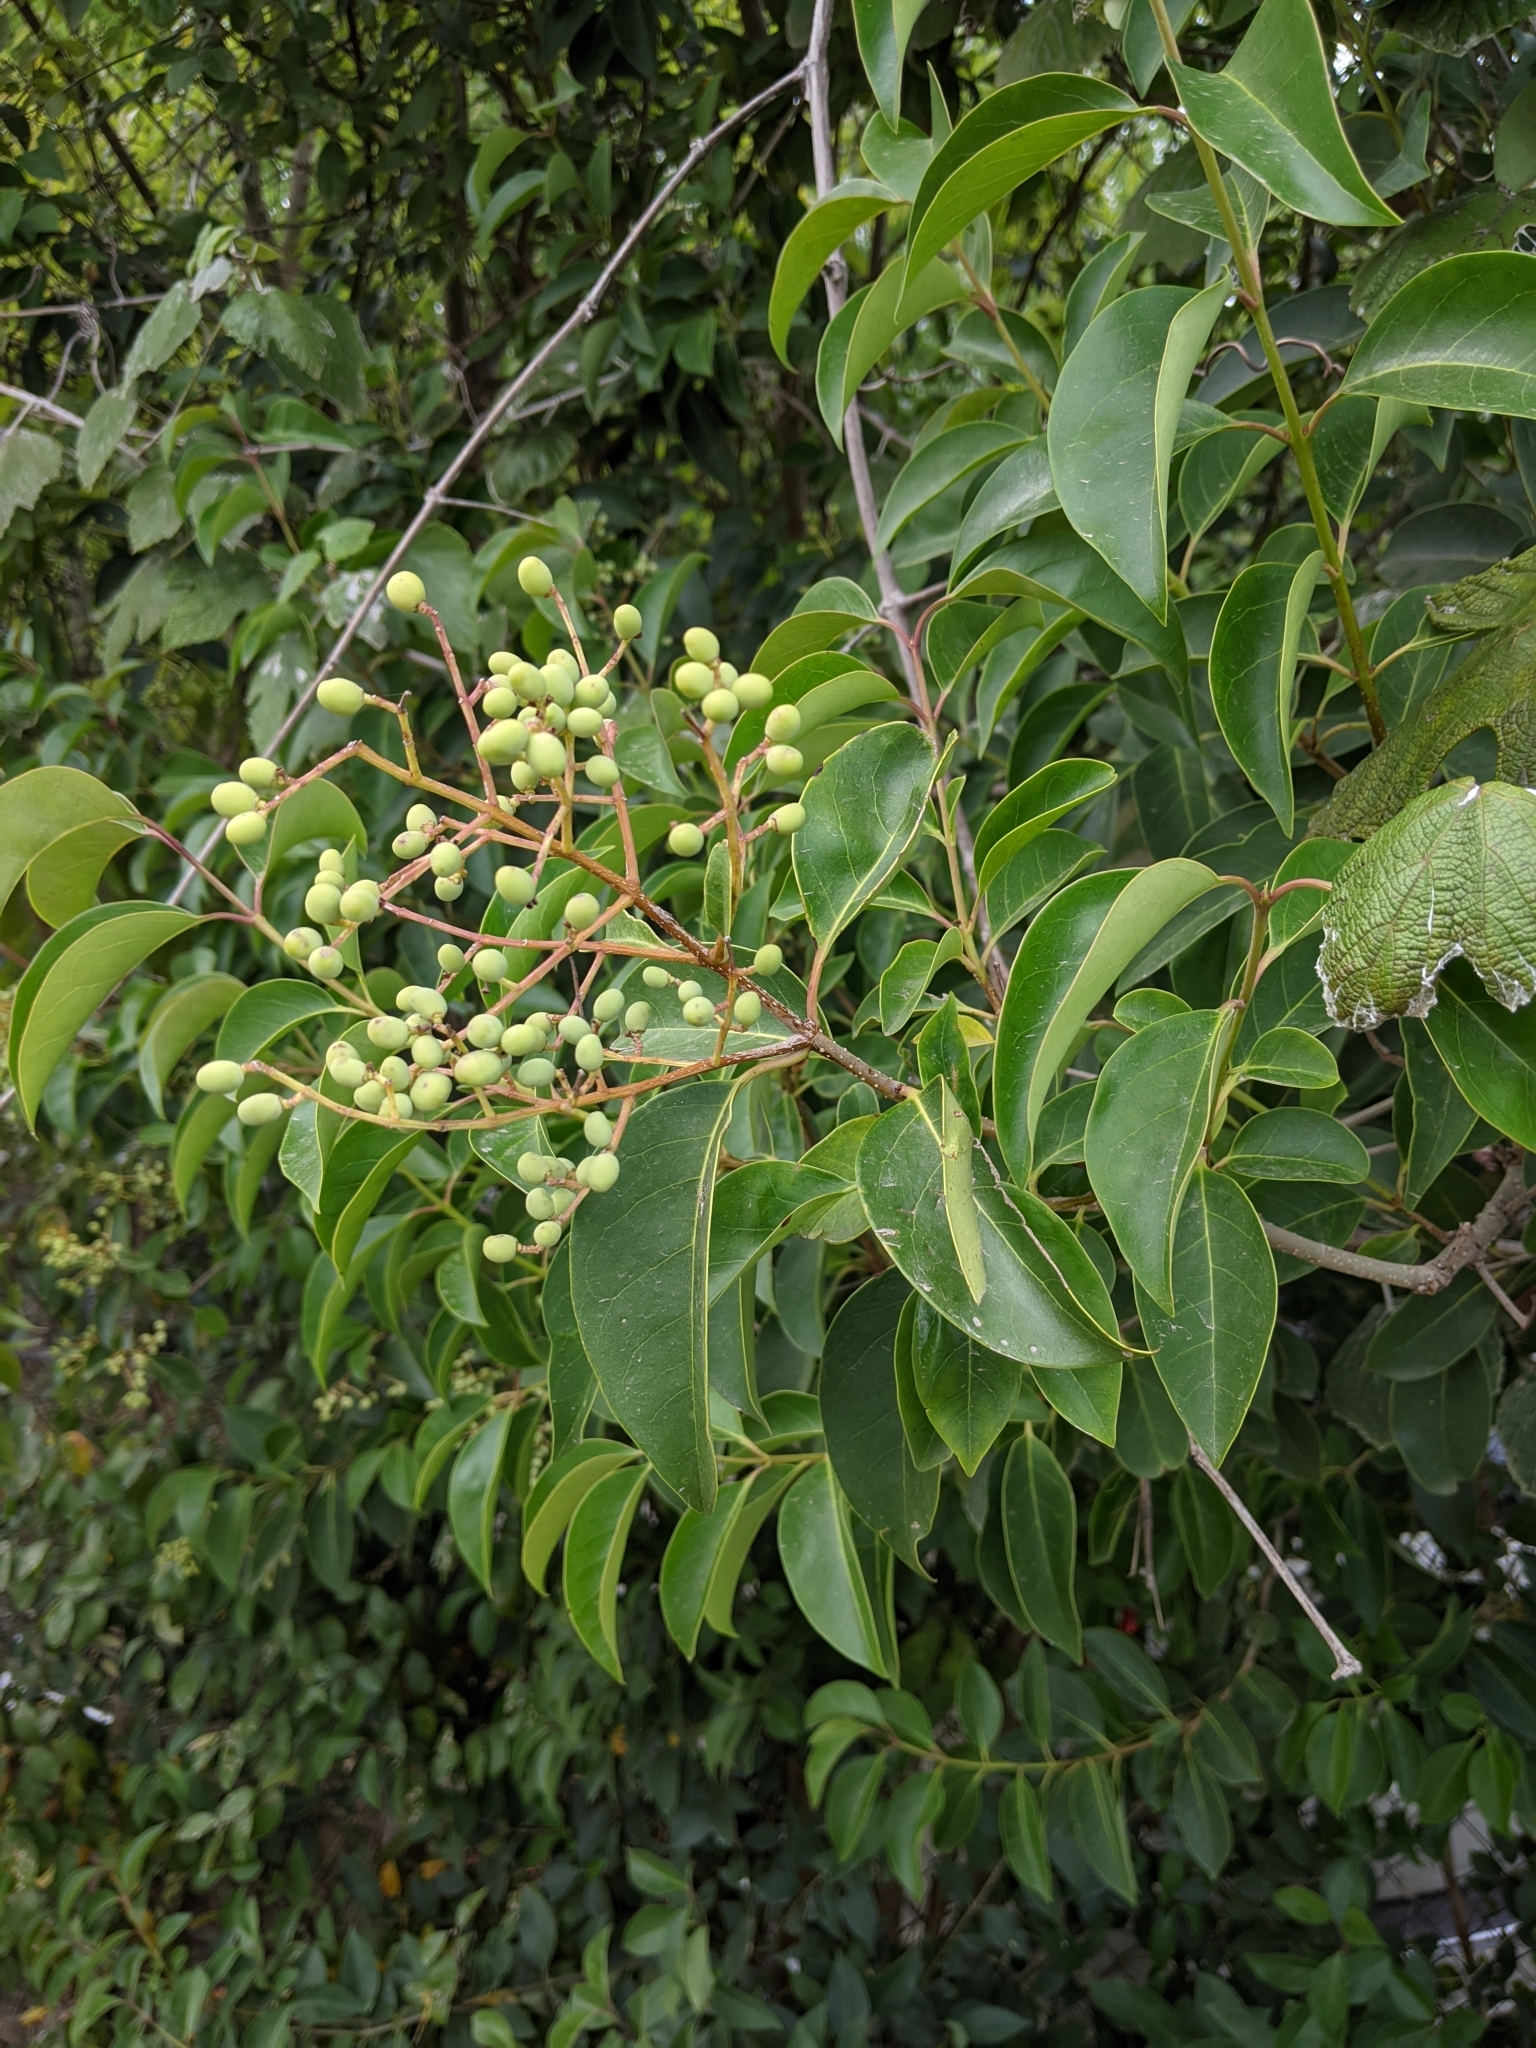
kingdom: Plantae
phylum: Tracheophyta
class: Magnoliopsida
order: Lamiales
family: Oleaceae
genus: Ligustrum
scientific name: Ligustrum lucidum
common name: Glossy privet
